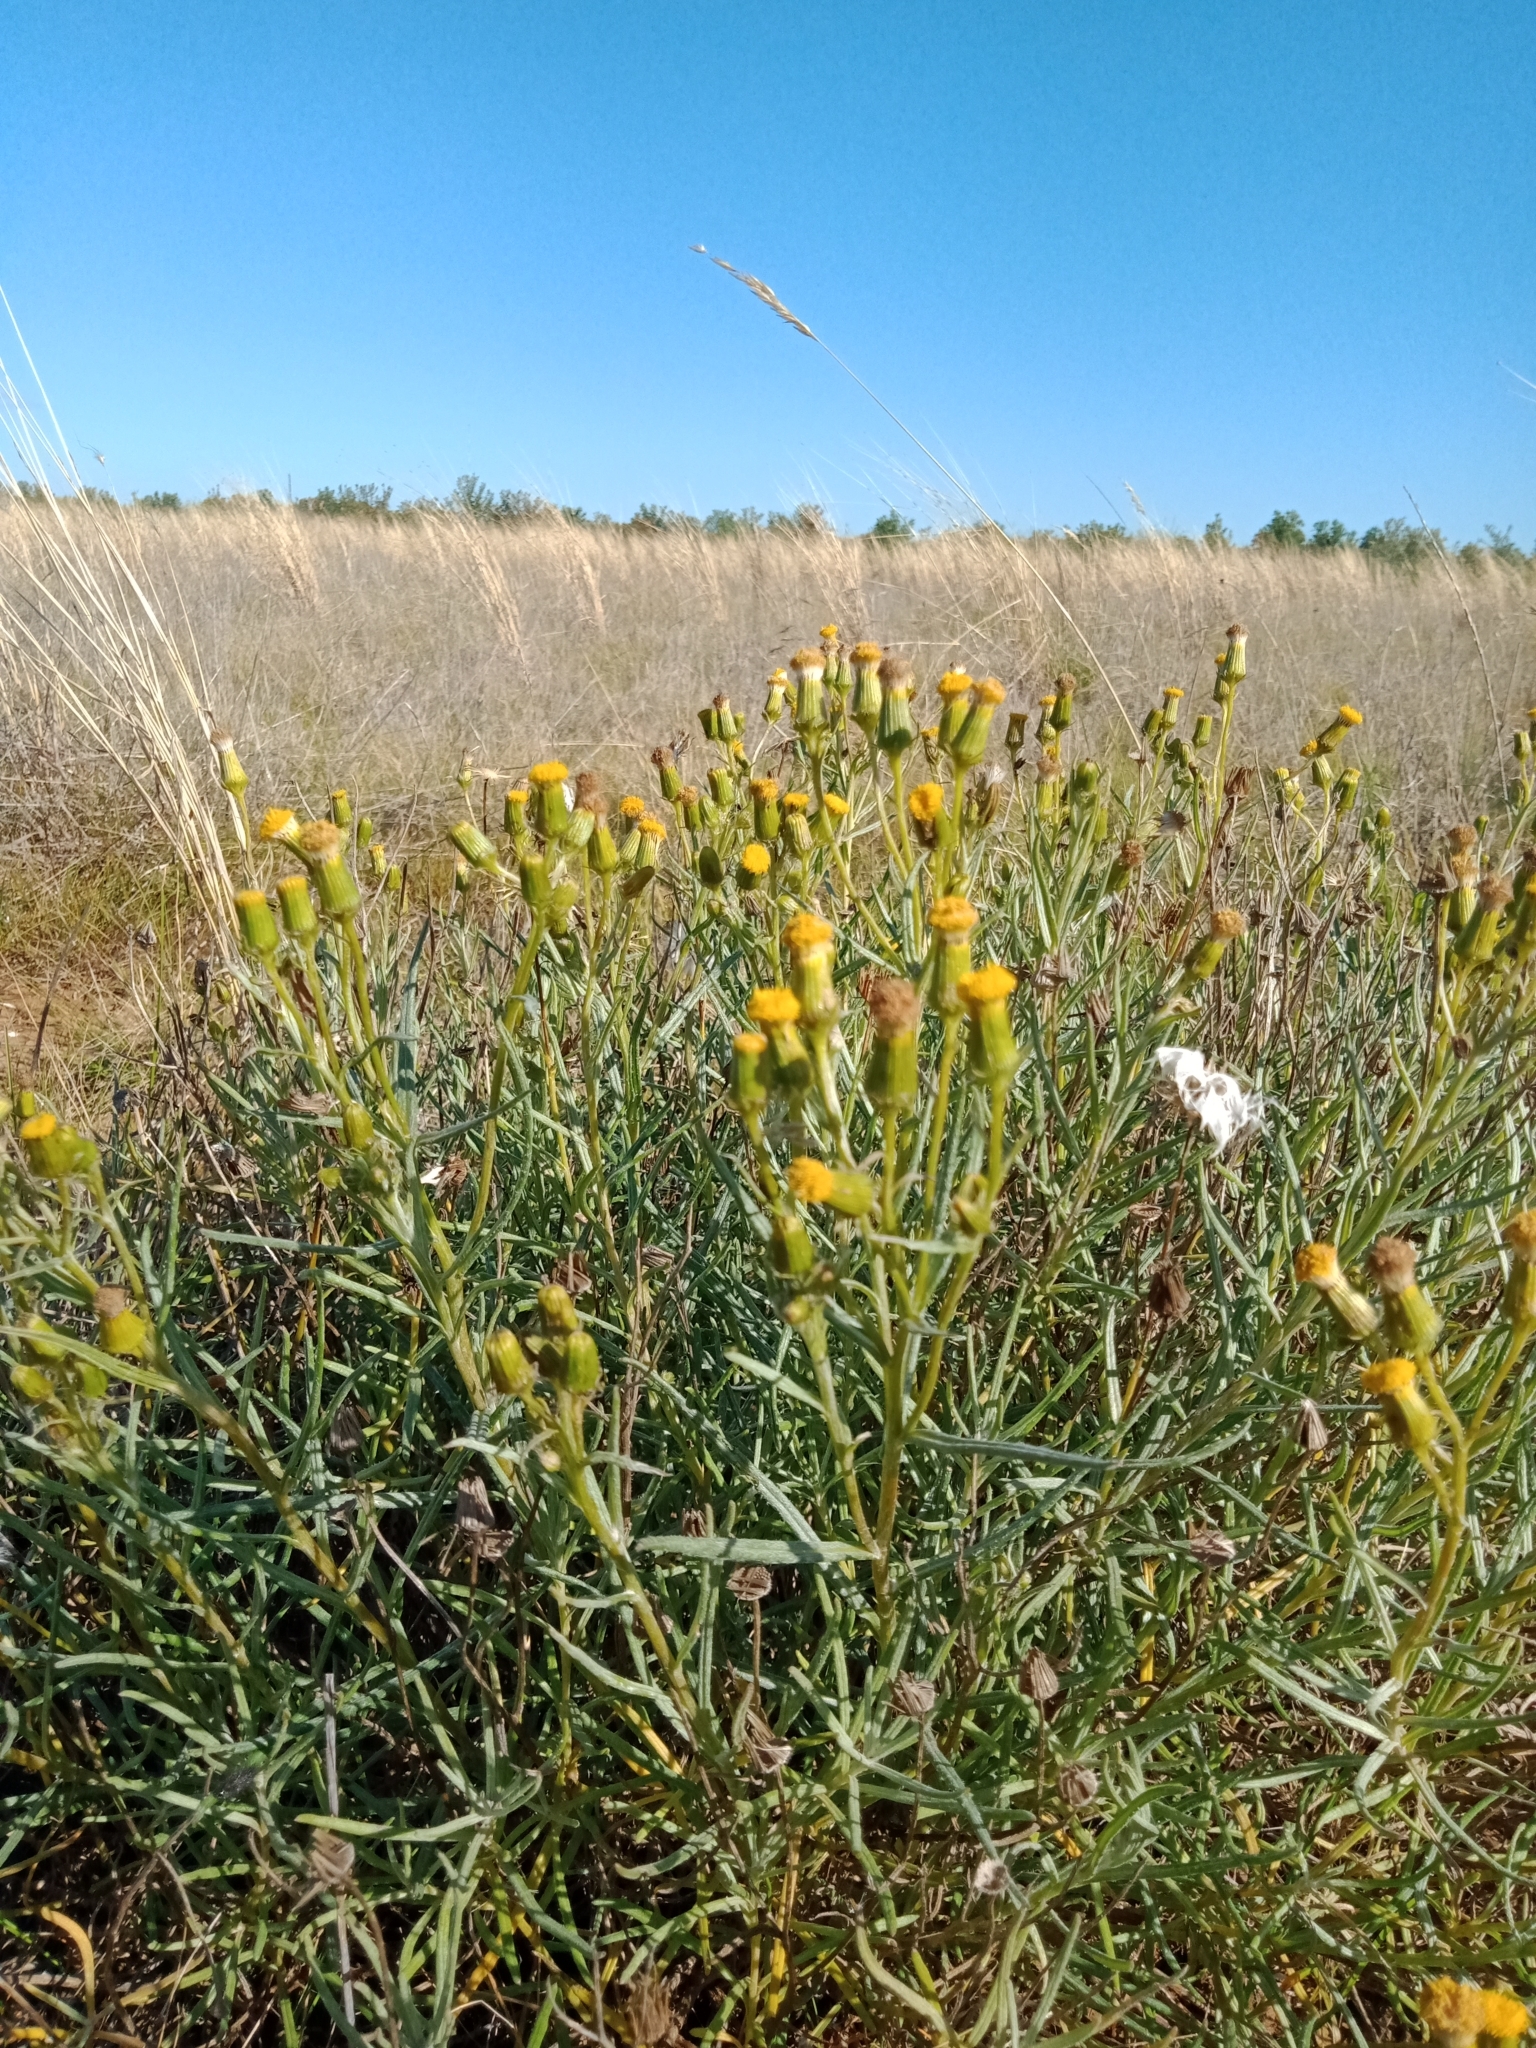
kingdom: Plantae
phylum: Tracheophyta
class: Magnoliopsida
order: Asterales
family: Asteraceae
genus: Senecio
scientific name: Senecio macrocarpus
